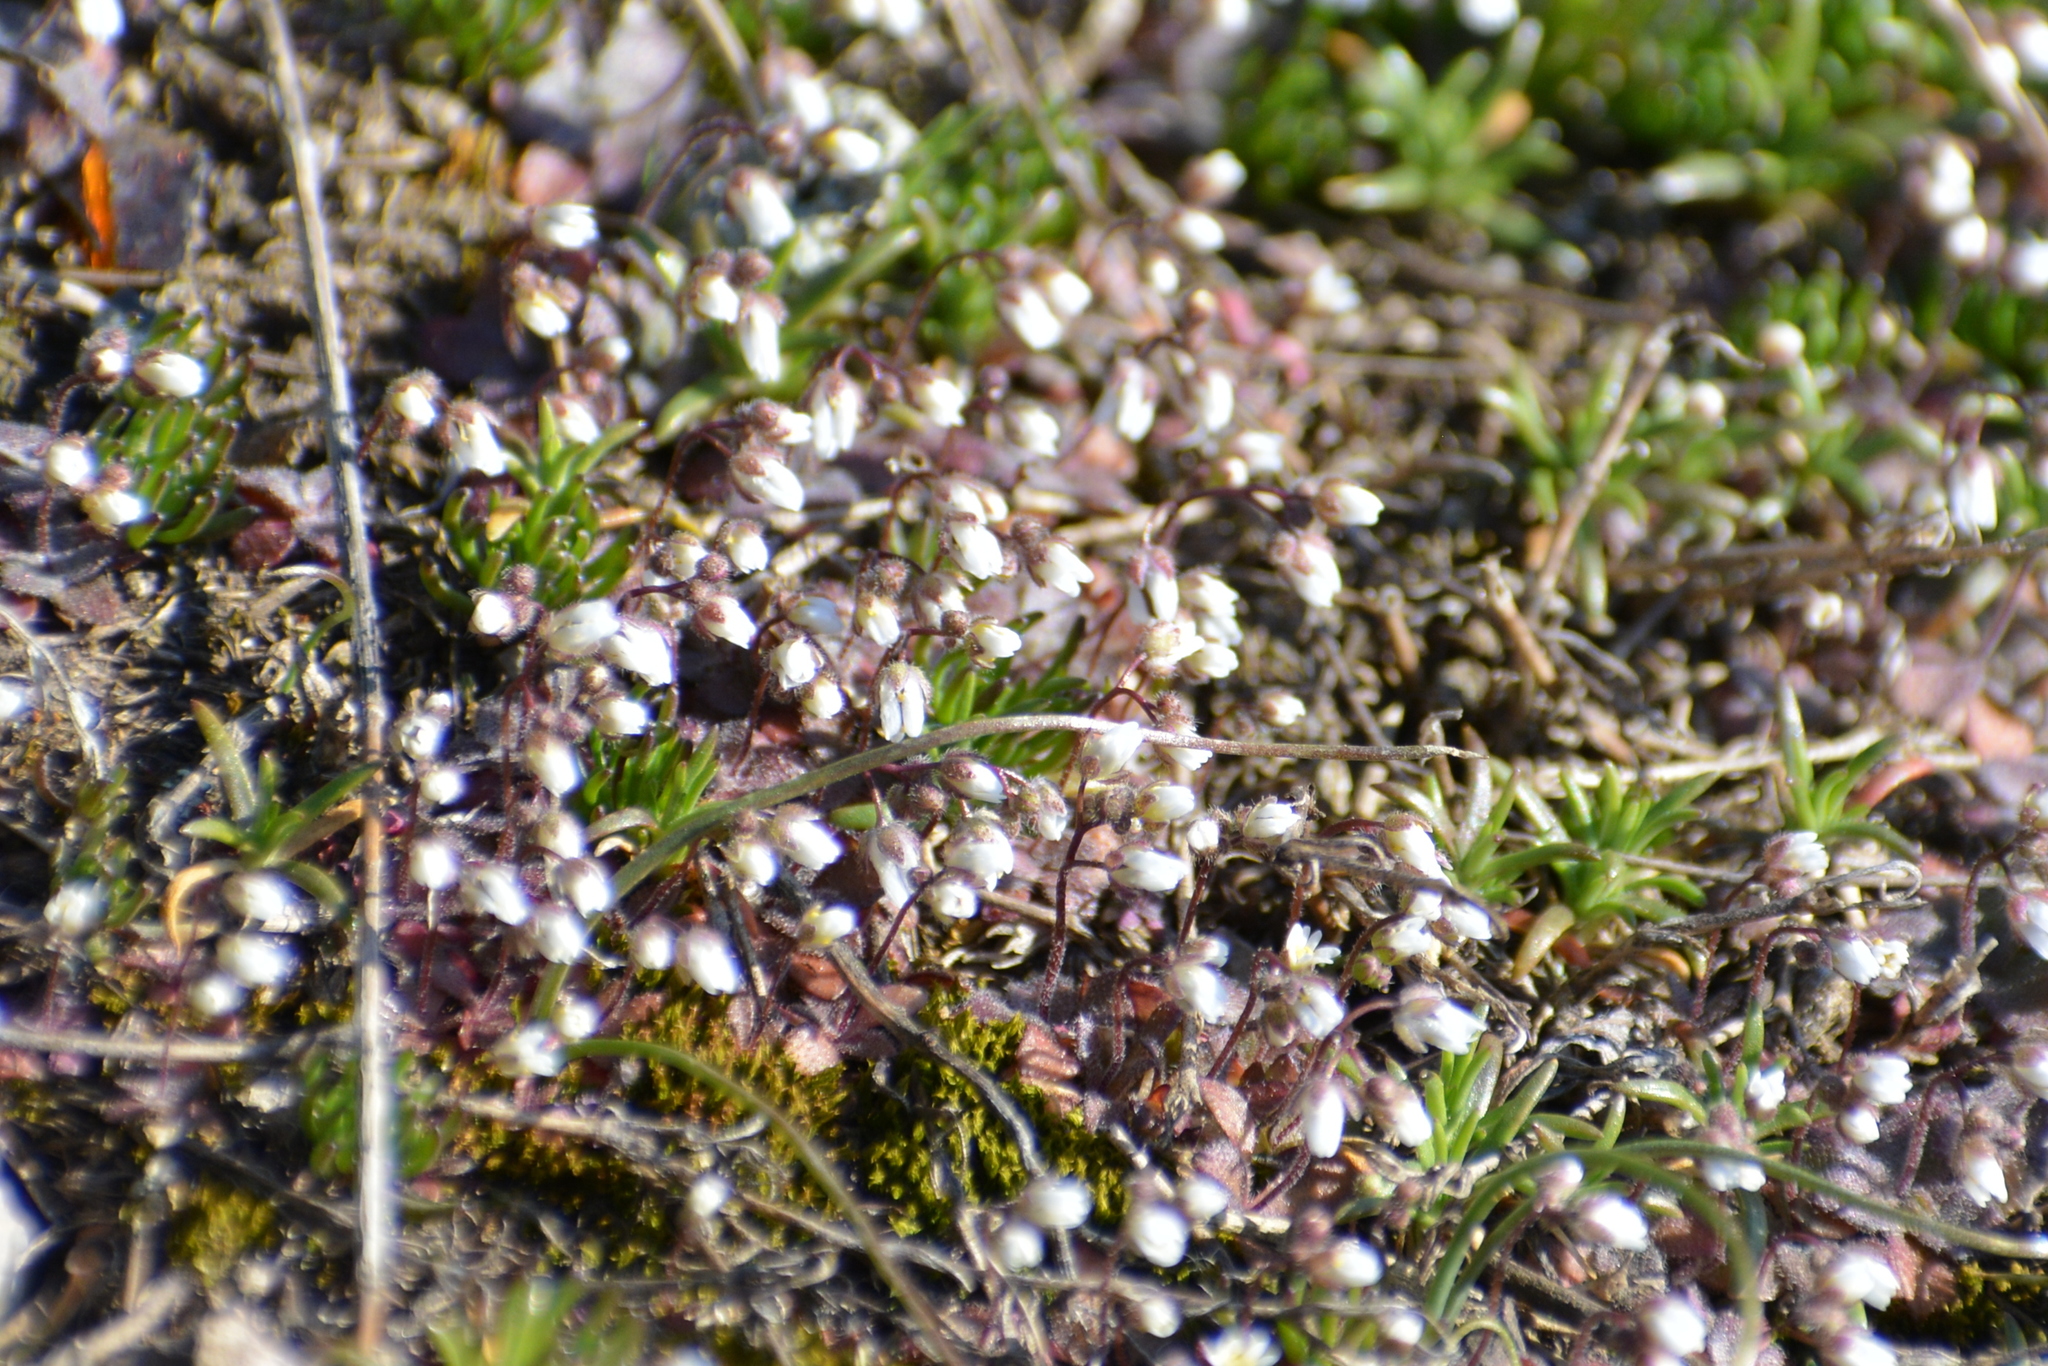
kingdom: Plantae
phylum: Tracheophyta
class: Magnoliopsida
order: Brassicales
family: Brassicaceae
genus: Draba
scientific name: Draba verna
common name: Spring draba
